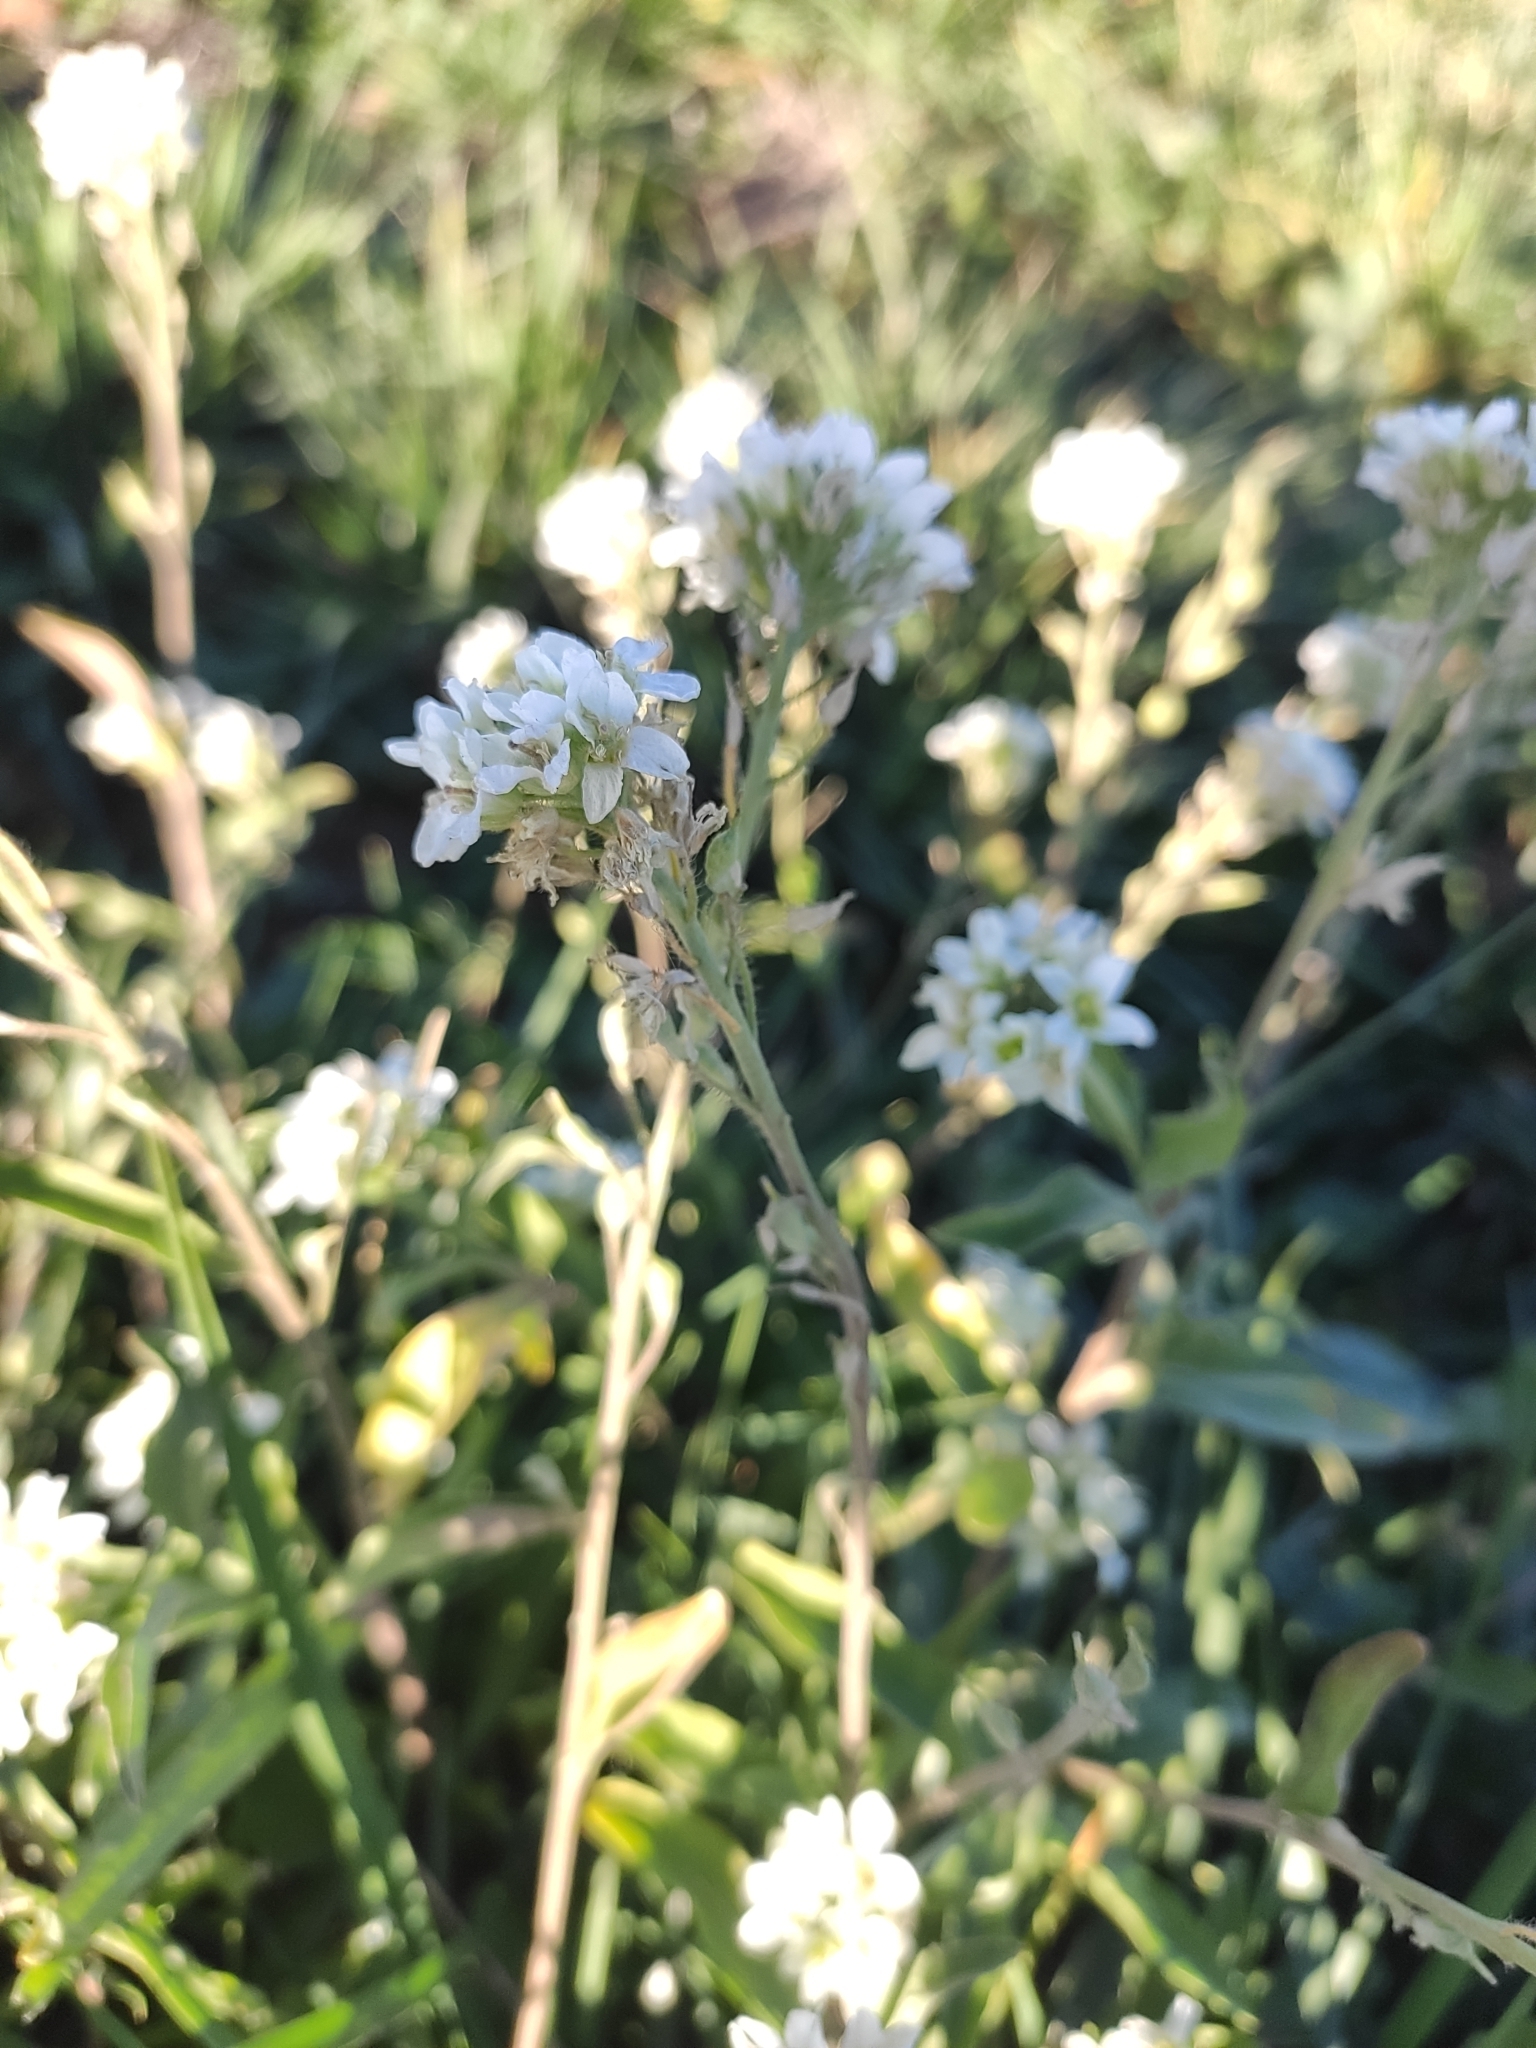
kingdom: Plantae
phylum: Tracheophyta
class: Magnoliopsida
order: Brassicales
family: Brassicaceae
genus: Berteroa
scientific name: Berteroa incana
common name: Hoary alison
